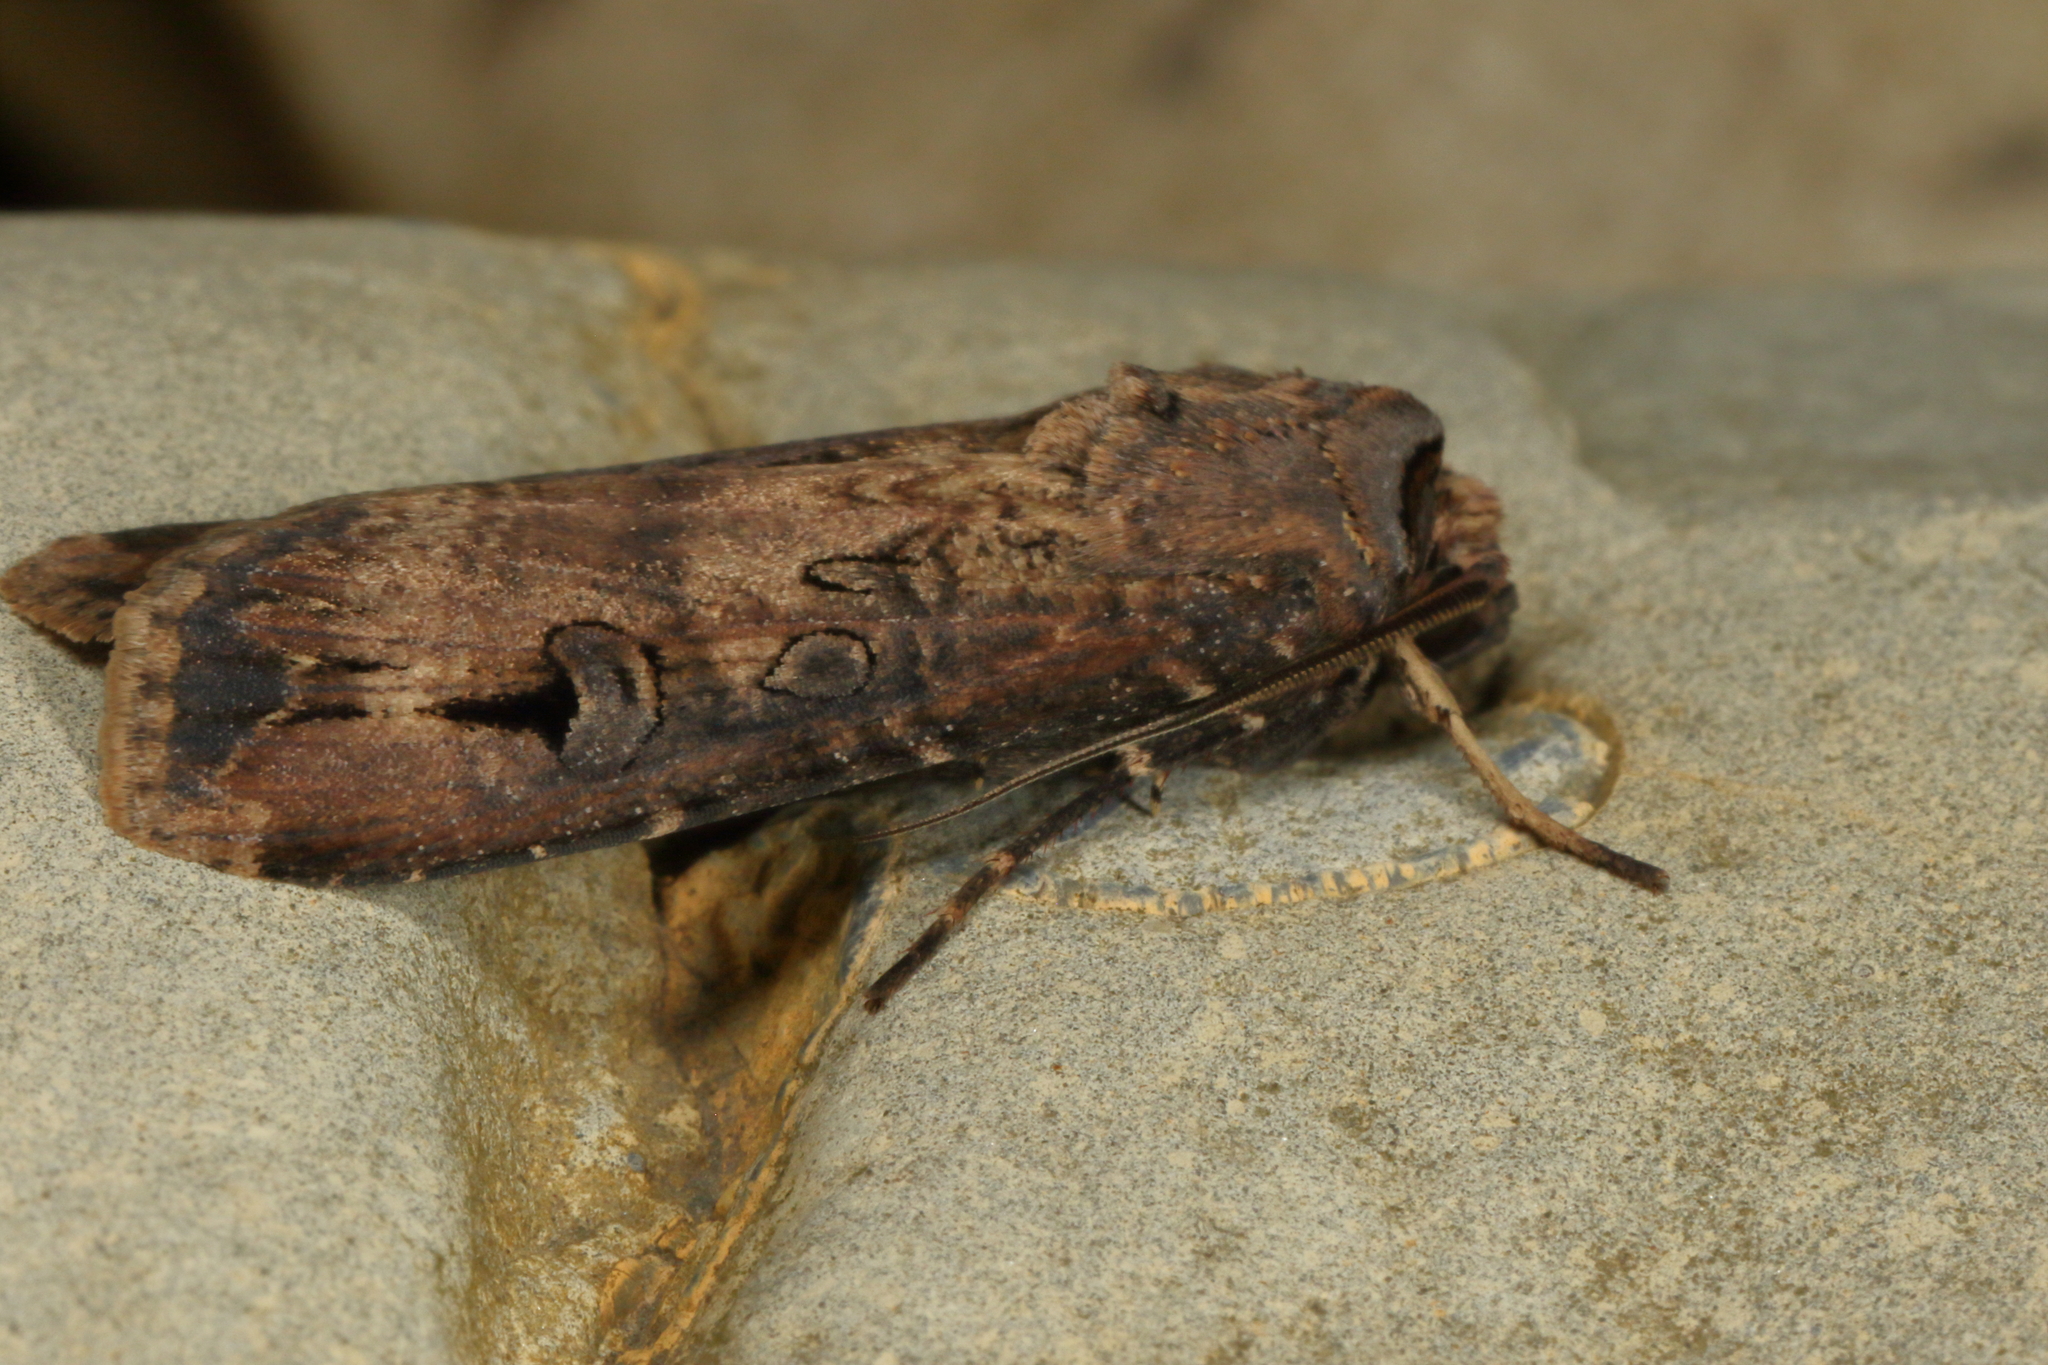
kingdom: Animalia
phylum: Arthropoda
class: Insecta
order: Lepidoptera
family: Noctuidae
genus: Agrotis
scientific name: Agrotis ipsilon
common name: Dark sword-grass
